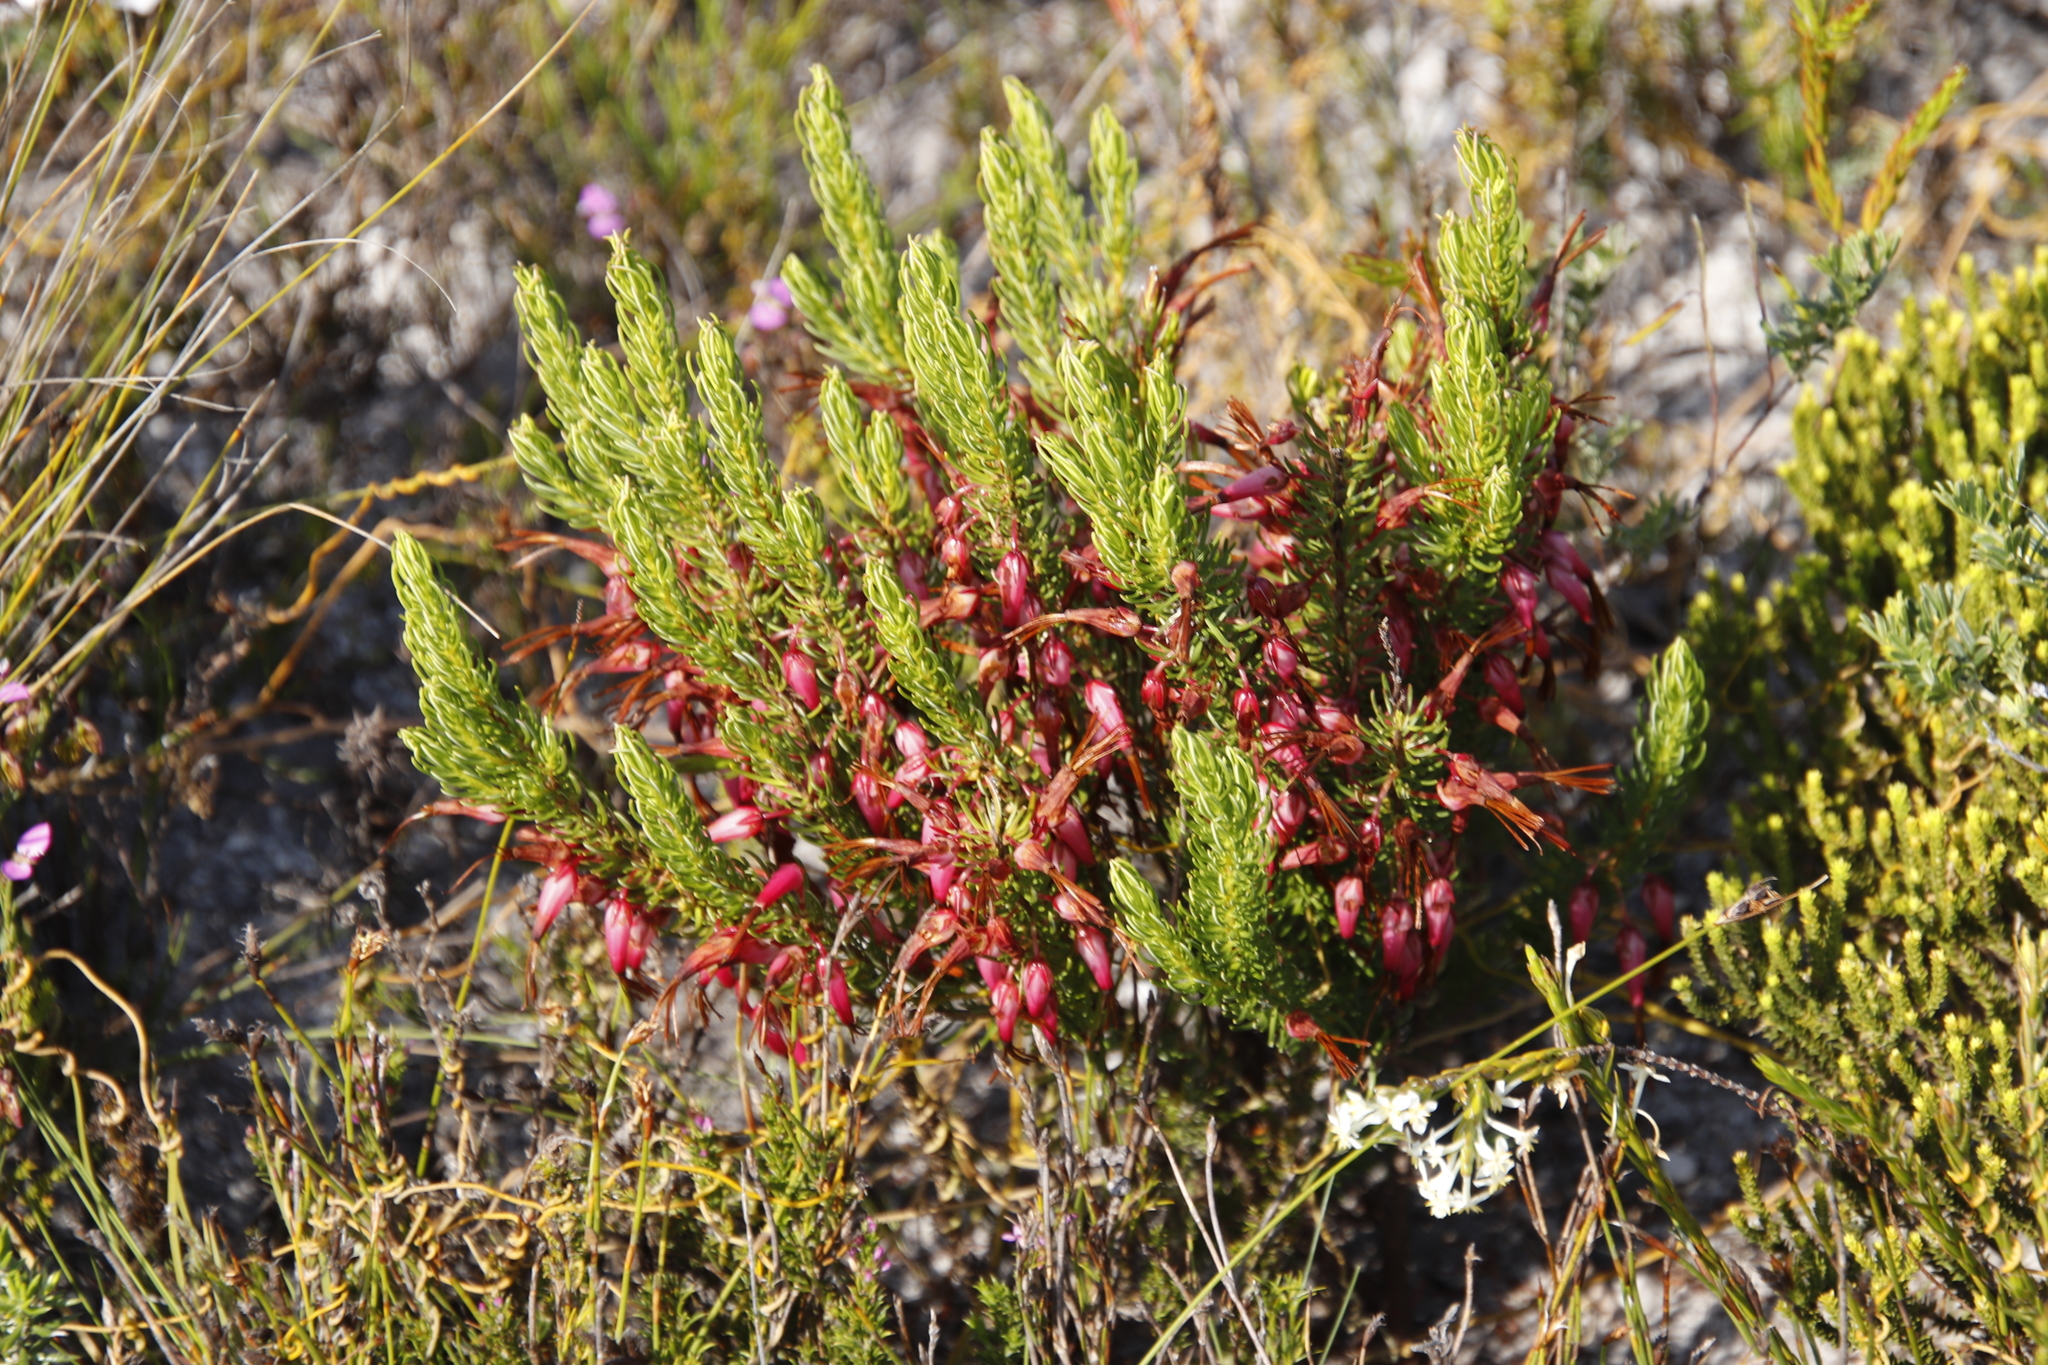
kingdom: Plantae
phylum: Tracheophyta
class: Magnoliopsida
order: Ericales
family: Ericaceae
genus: Erica
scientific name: Erica plukenetii
